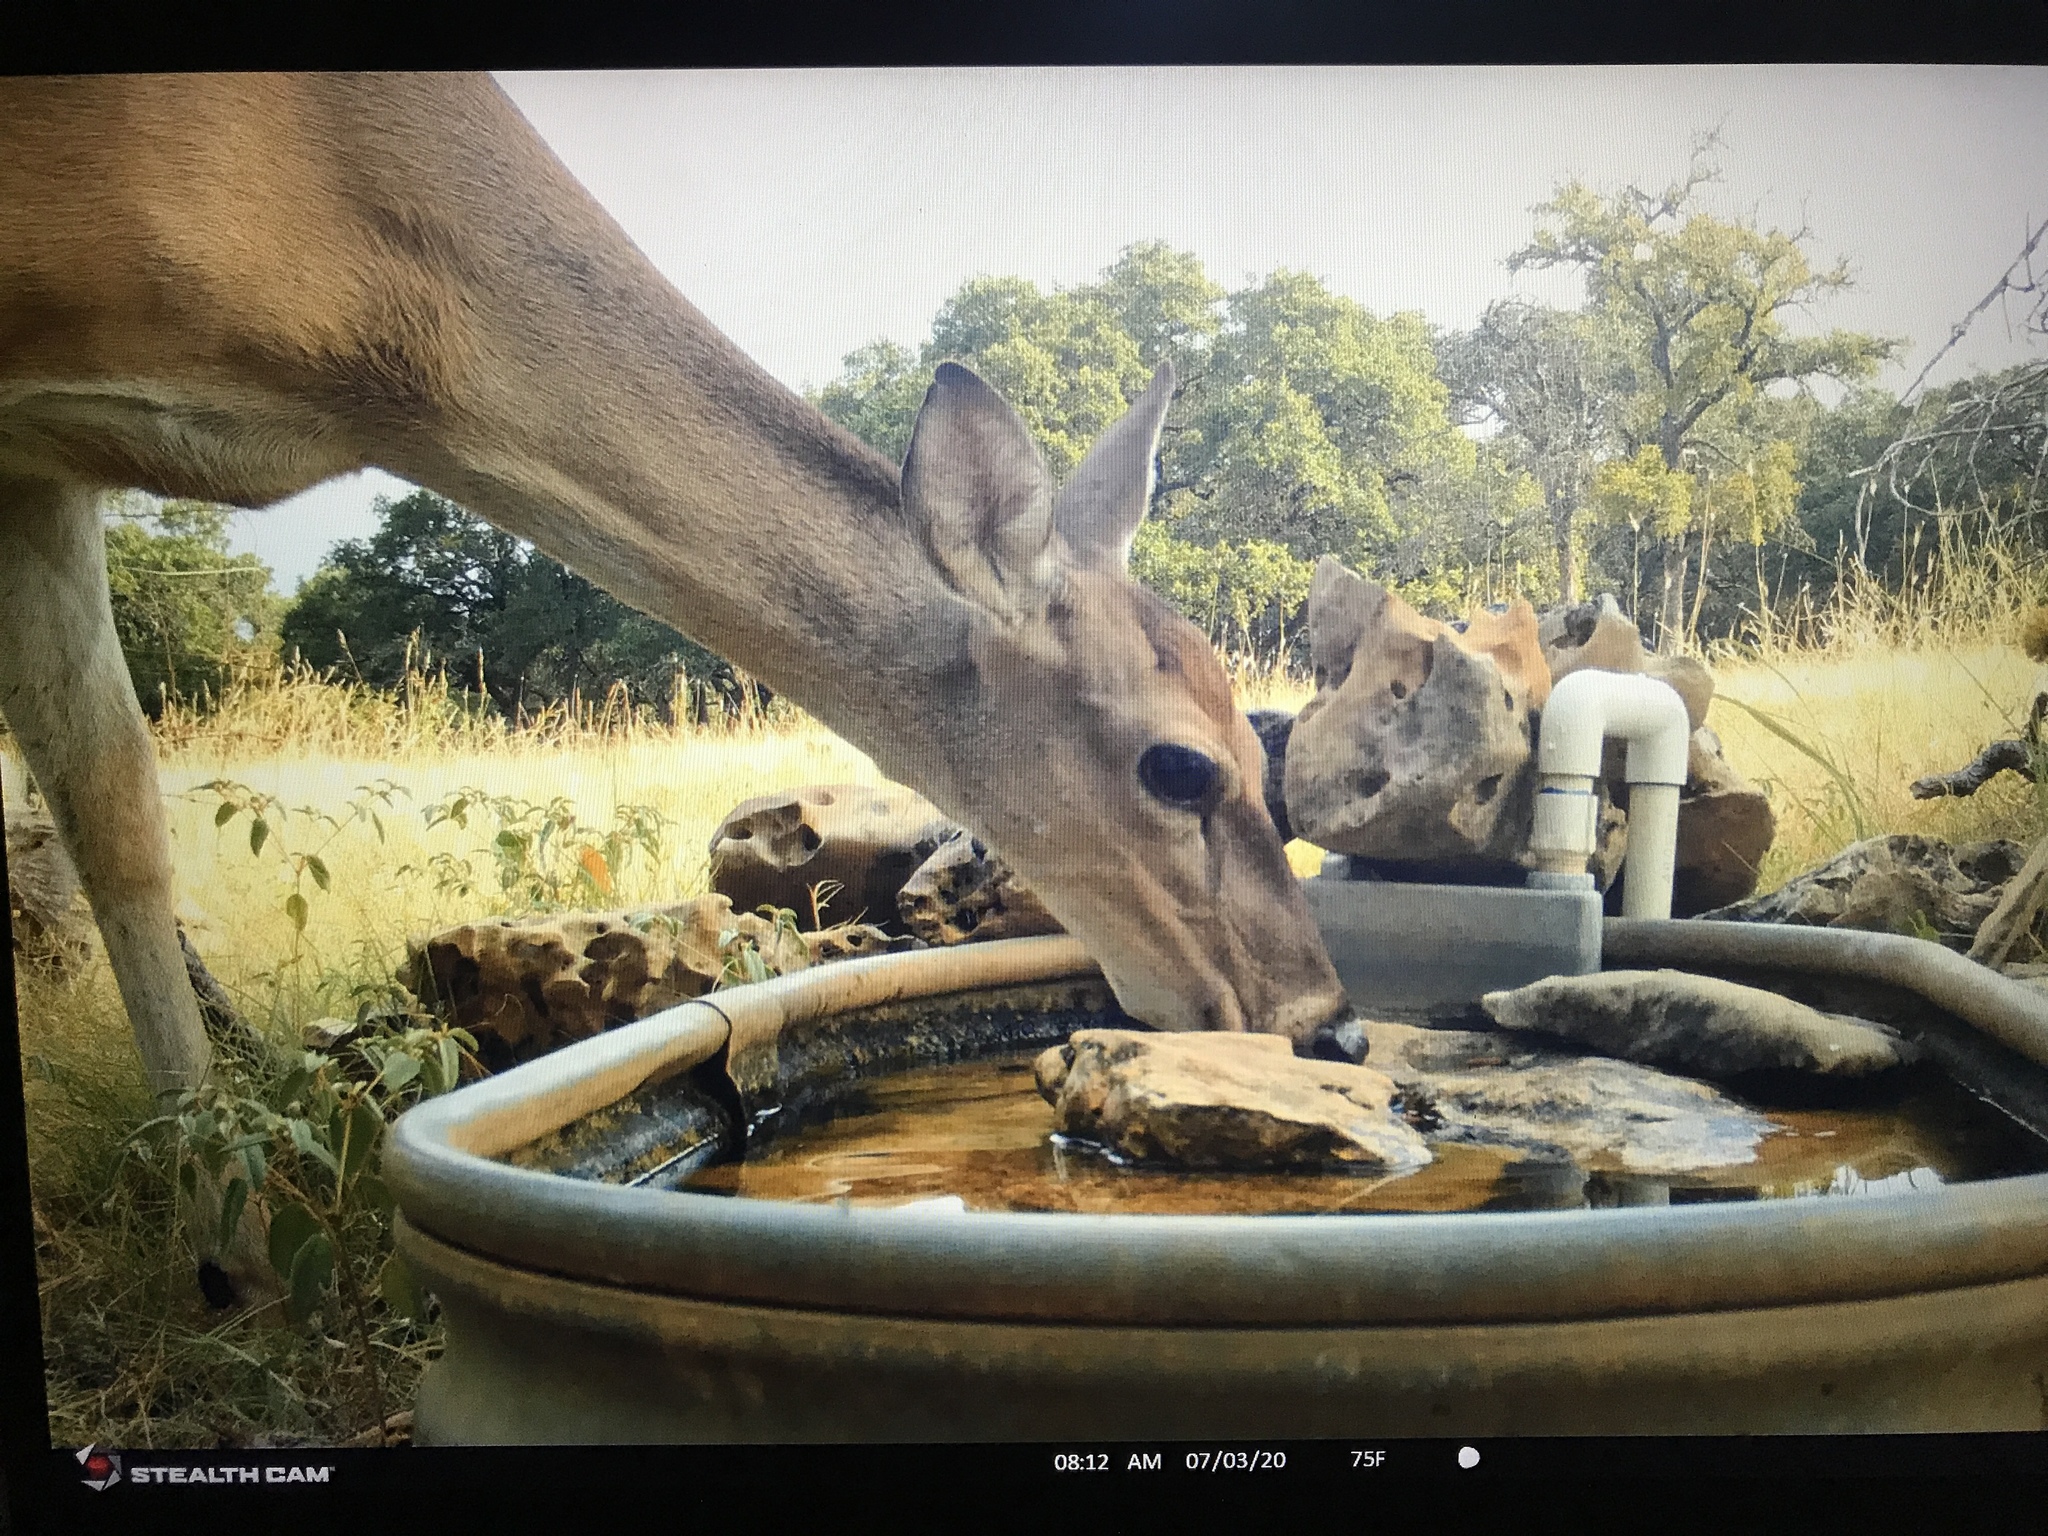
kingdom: Animalia
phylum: Chordata
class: Mammalia
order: Artiodactyla
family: Cervidae
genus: Odocoileus
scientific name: Odocoileus virginianus
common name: White-tailed deer
